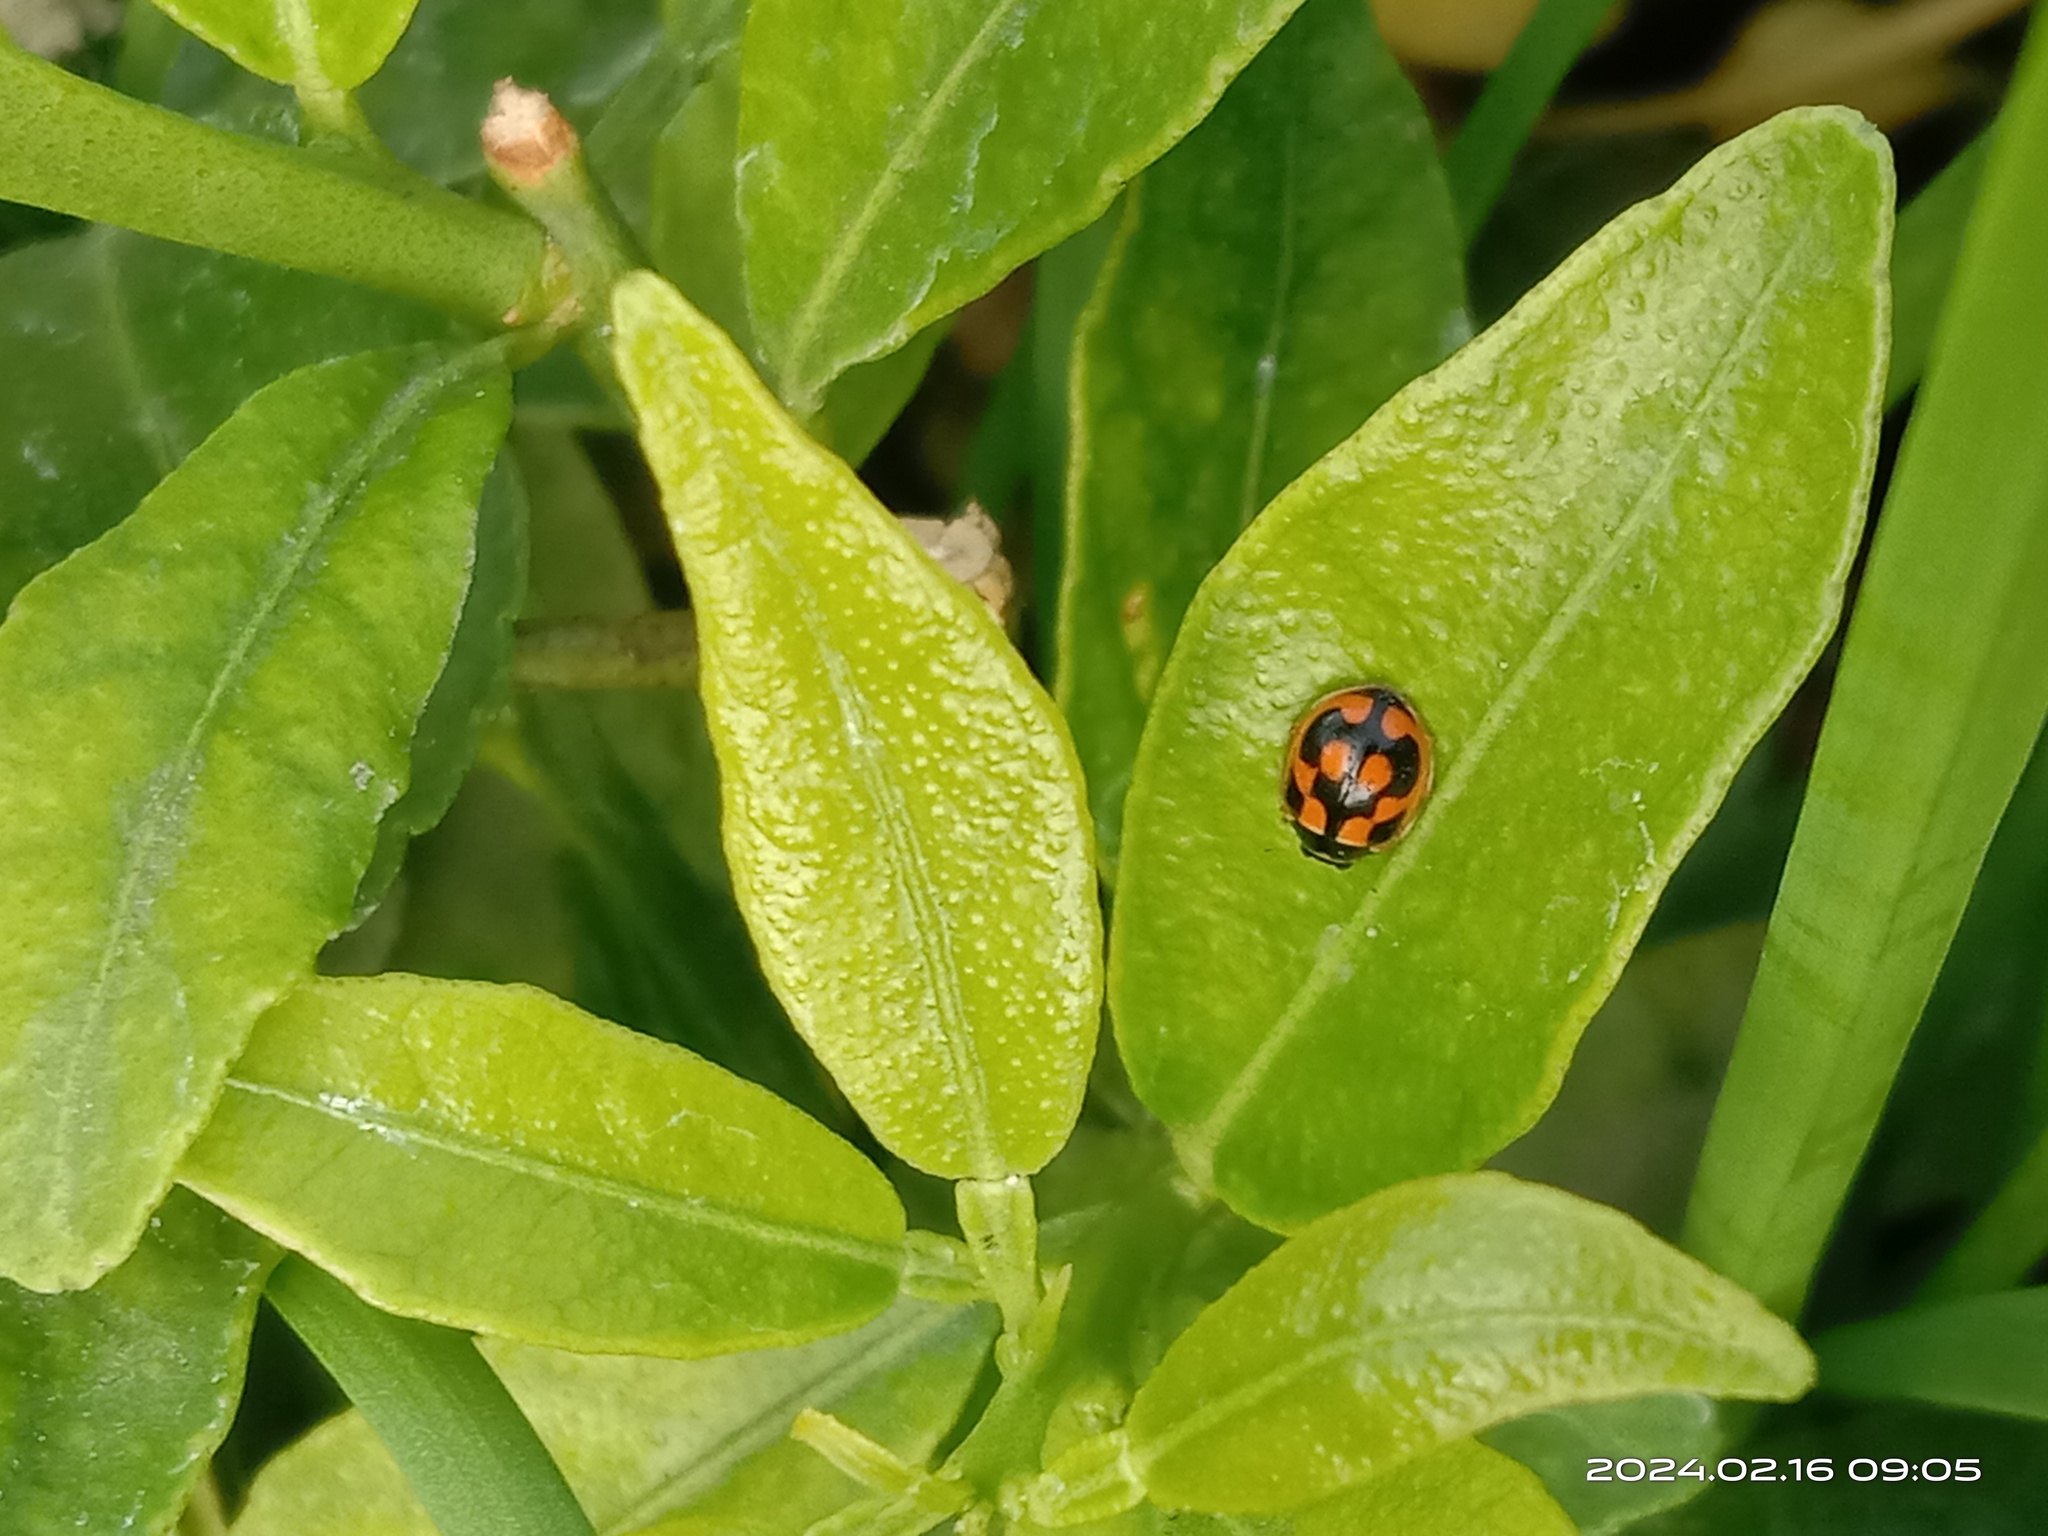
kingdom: Animalia
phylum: Arthropoda
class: Insecta
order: Coleoptera
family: Coccinellidae
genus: Propylea
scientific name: Propylea japonica
